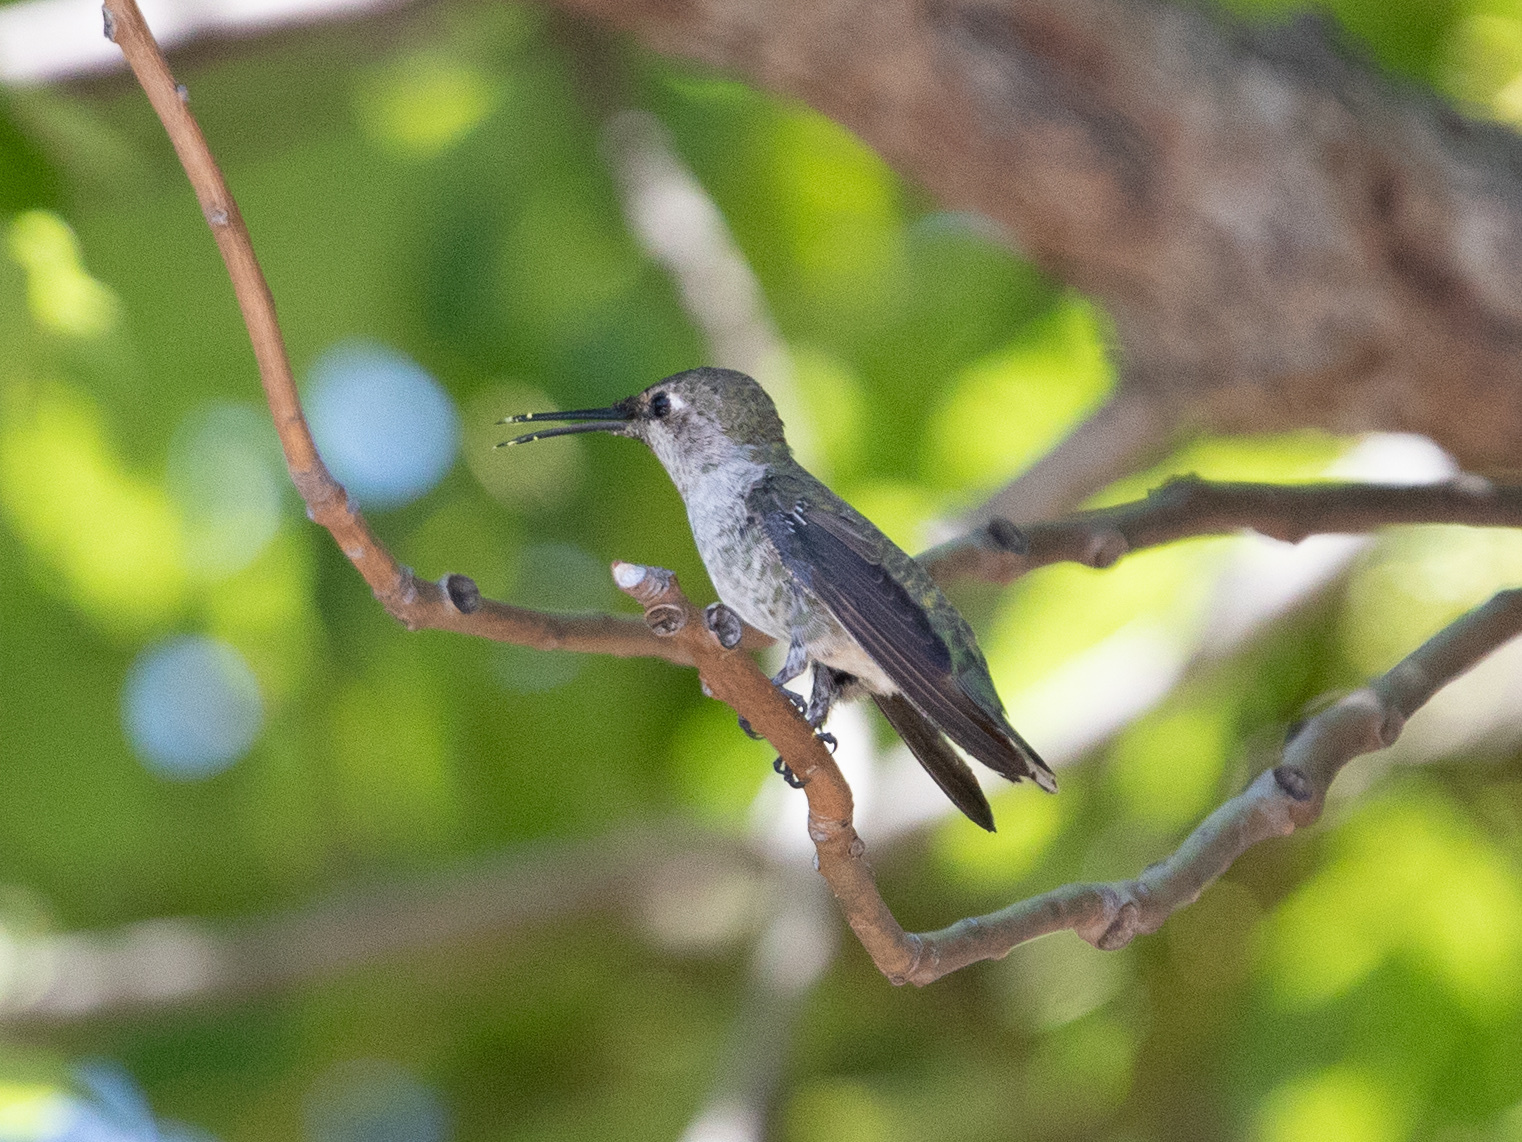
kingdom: Animalia
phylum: Chordata
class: Aves
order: Apodiformes
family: Trochilidae
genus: Calypte
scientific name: Calypte anna
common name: Anna's hummingbird
